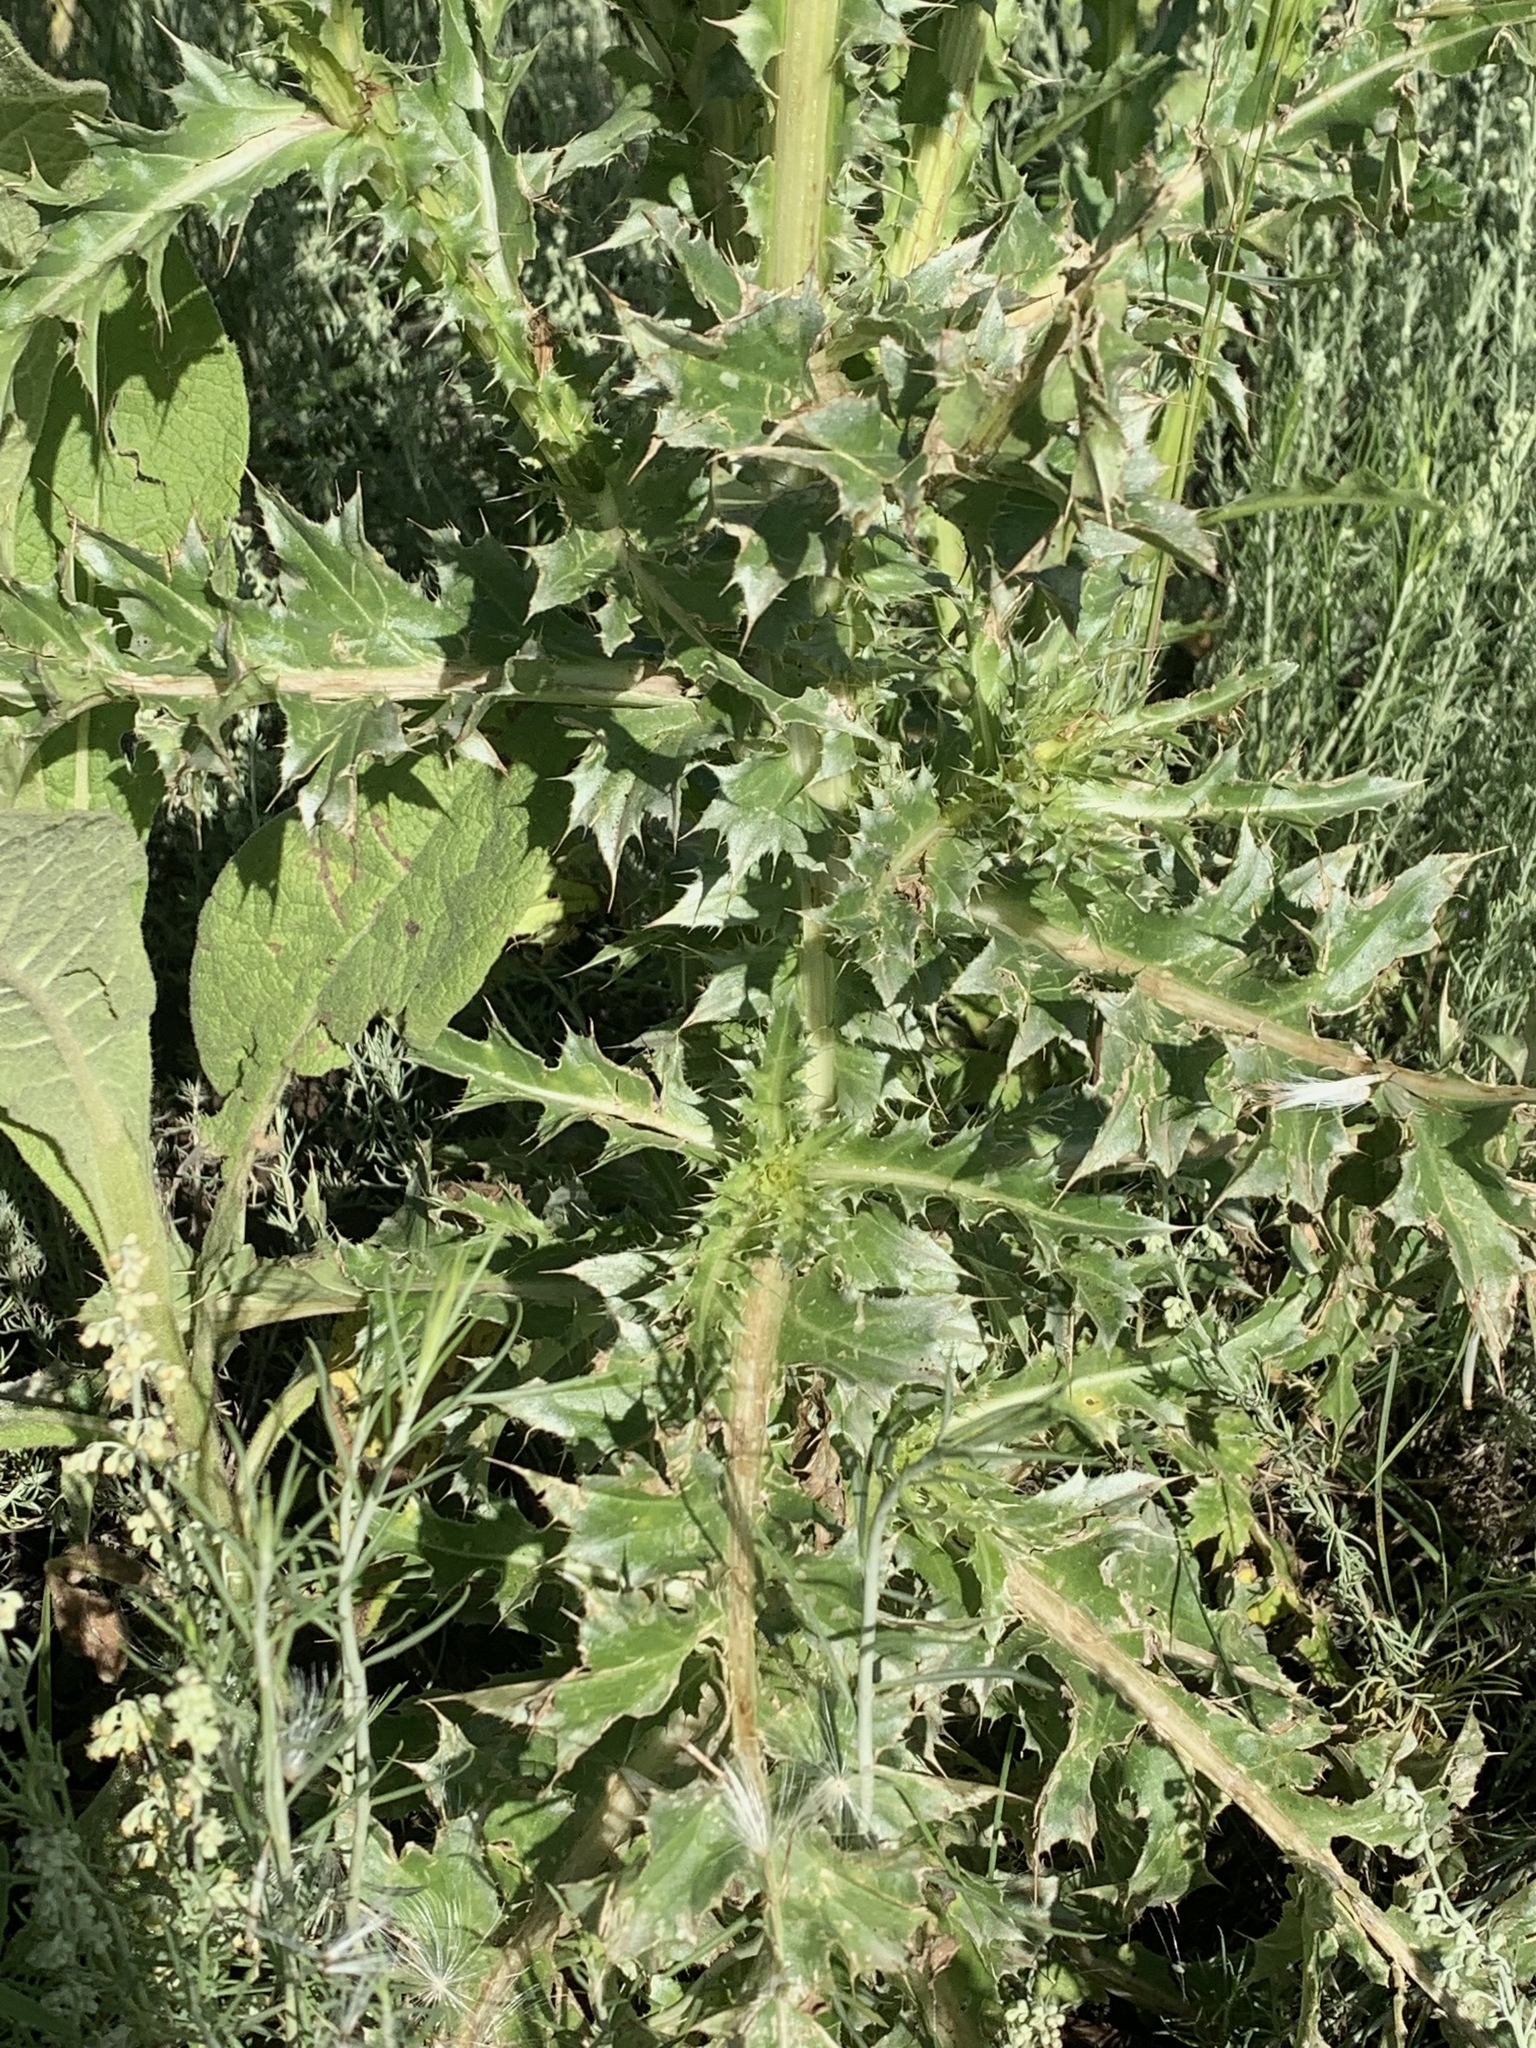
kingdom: Plantae
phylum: Tracheophyta
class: Magnoliopsida
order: Asterales
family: Asteraceae
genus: Carduus
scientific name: Carduus nutans
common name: Musk thistle
